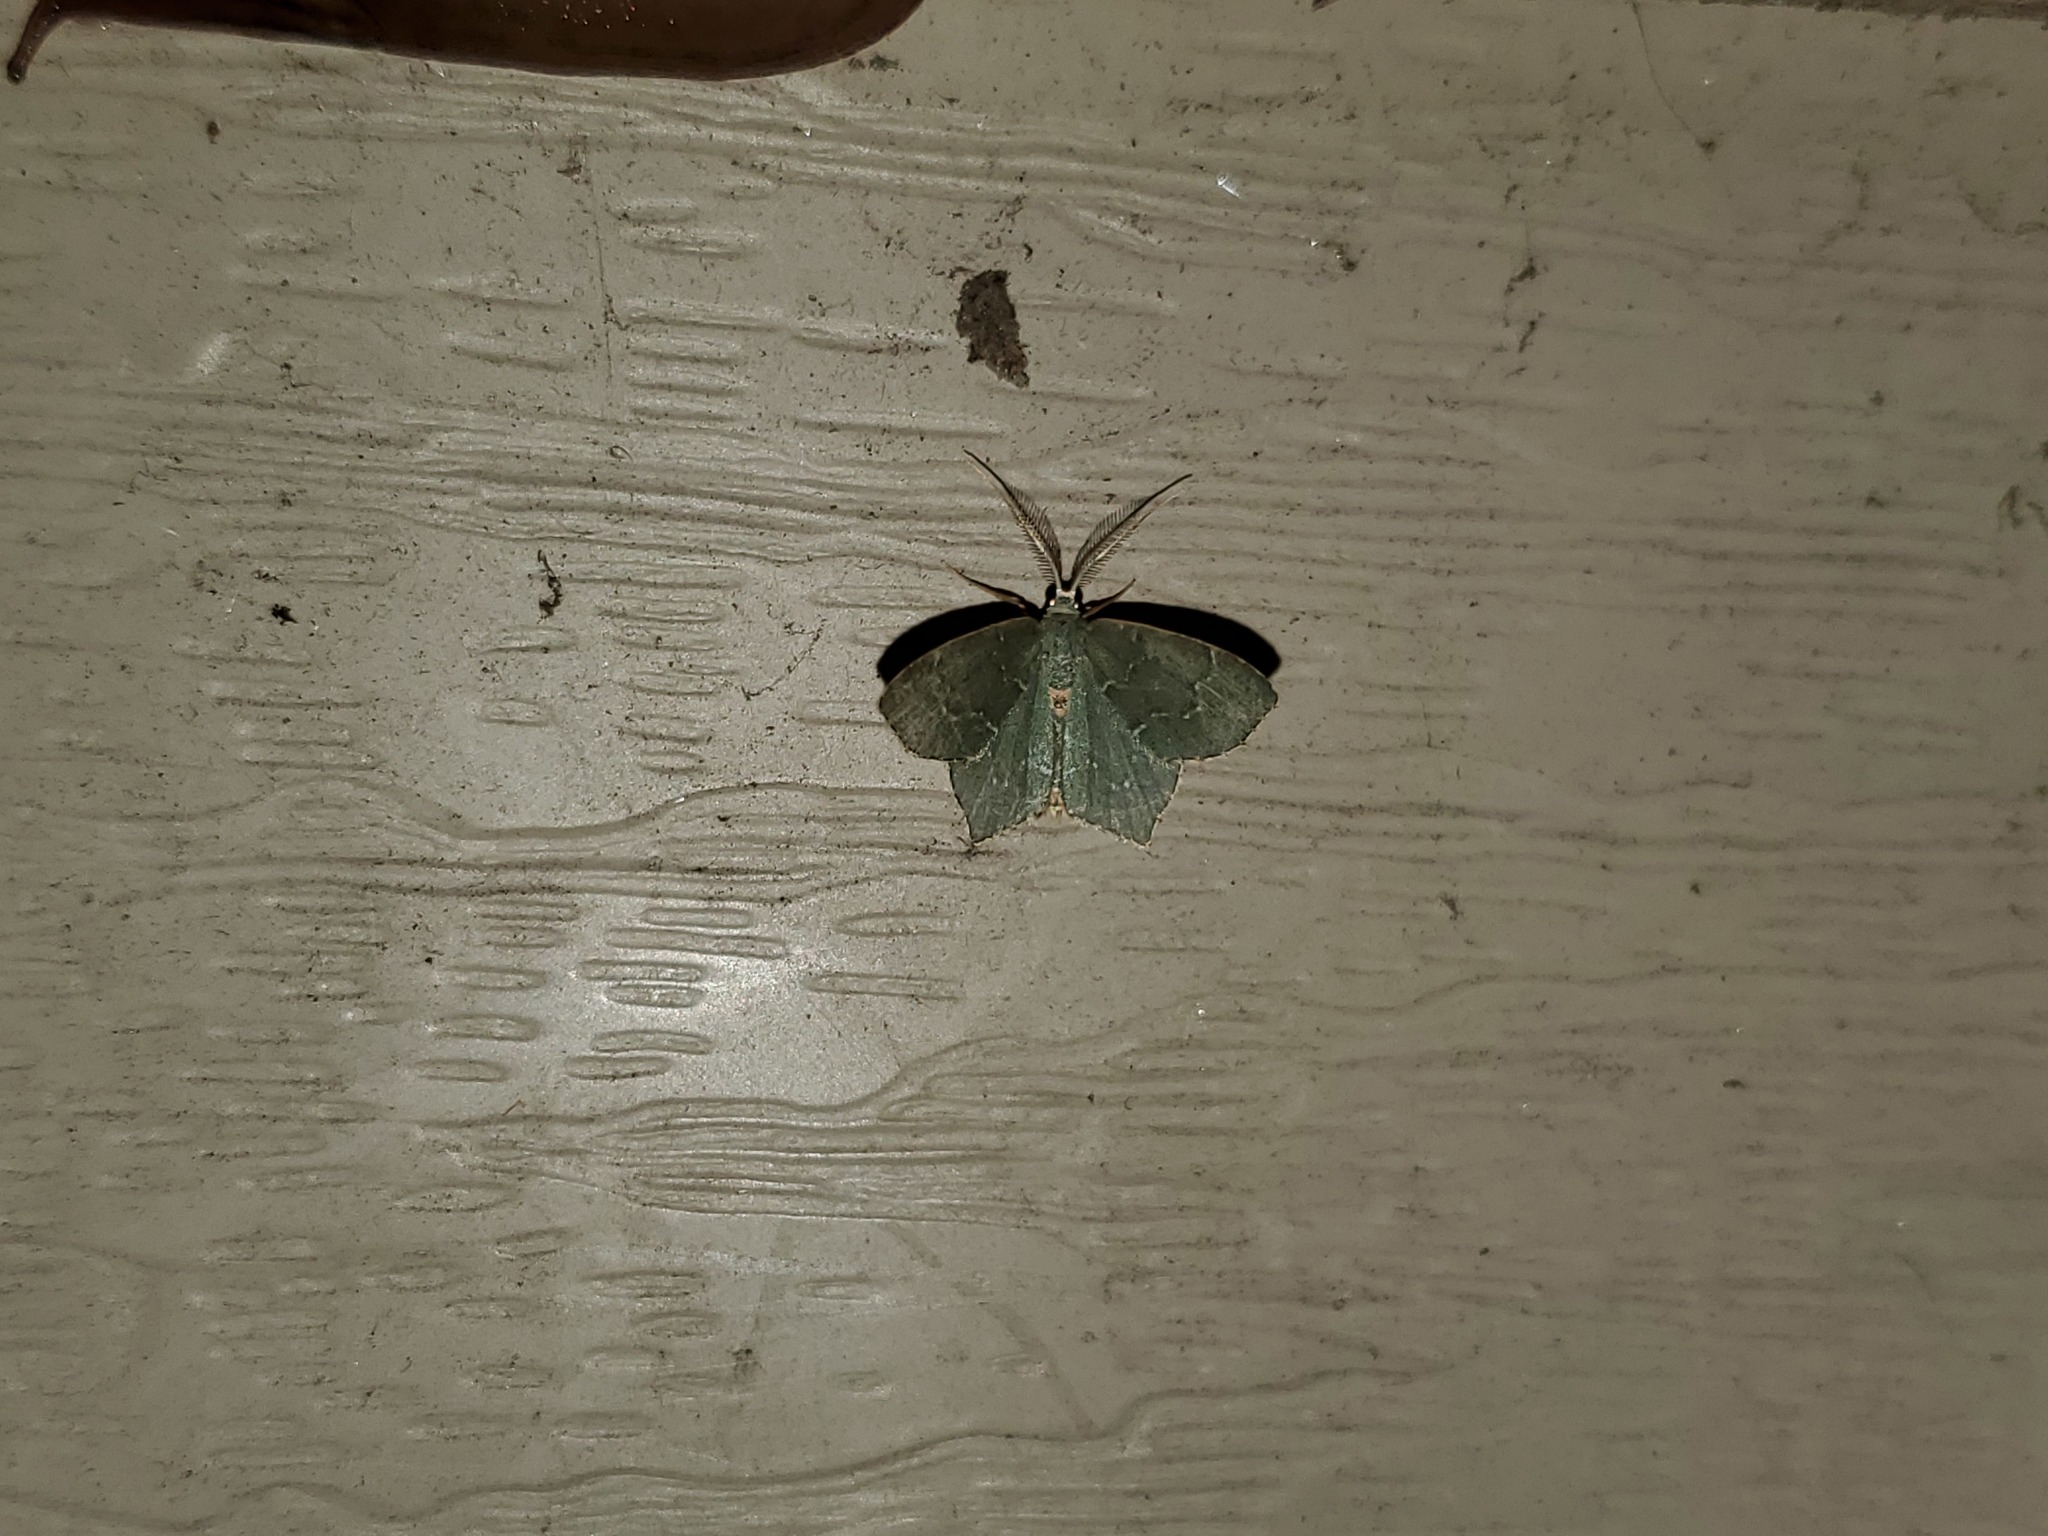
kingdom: Animalia
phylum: Arthropoda
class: Insecta
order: Lepidoptera
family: Geometridae
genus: Thalera
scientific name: Thalera pistasciaria
